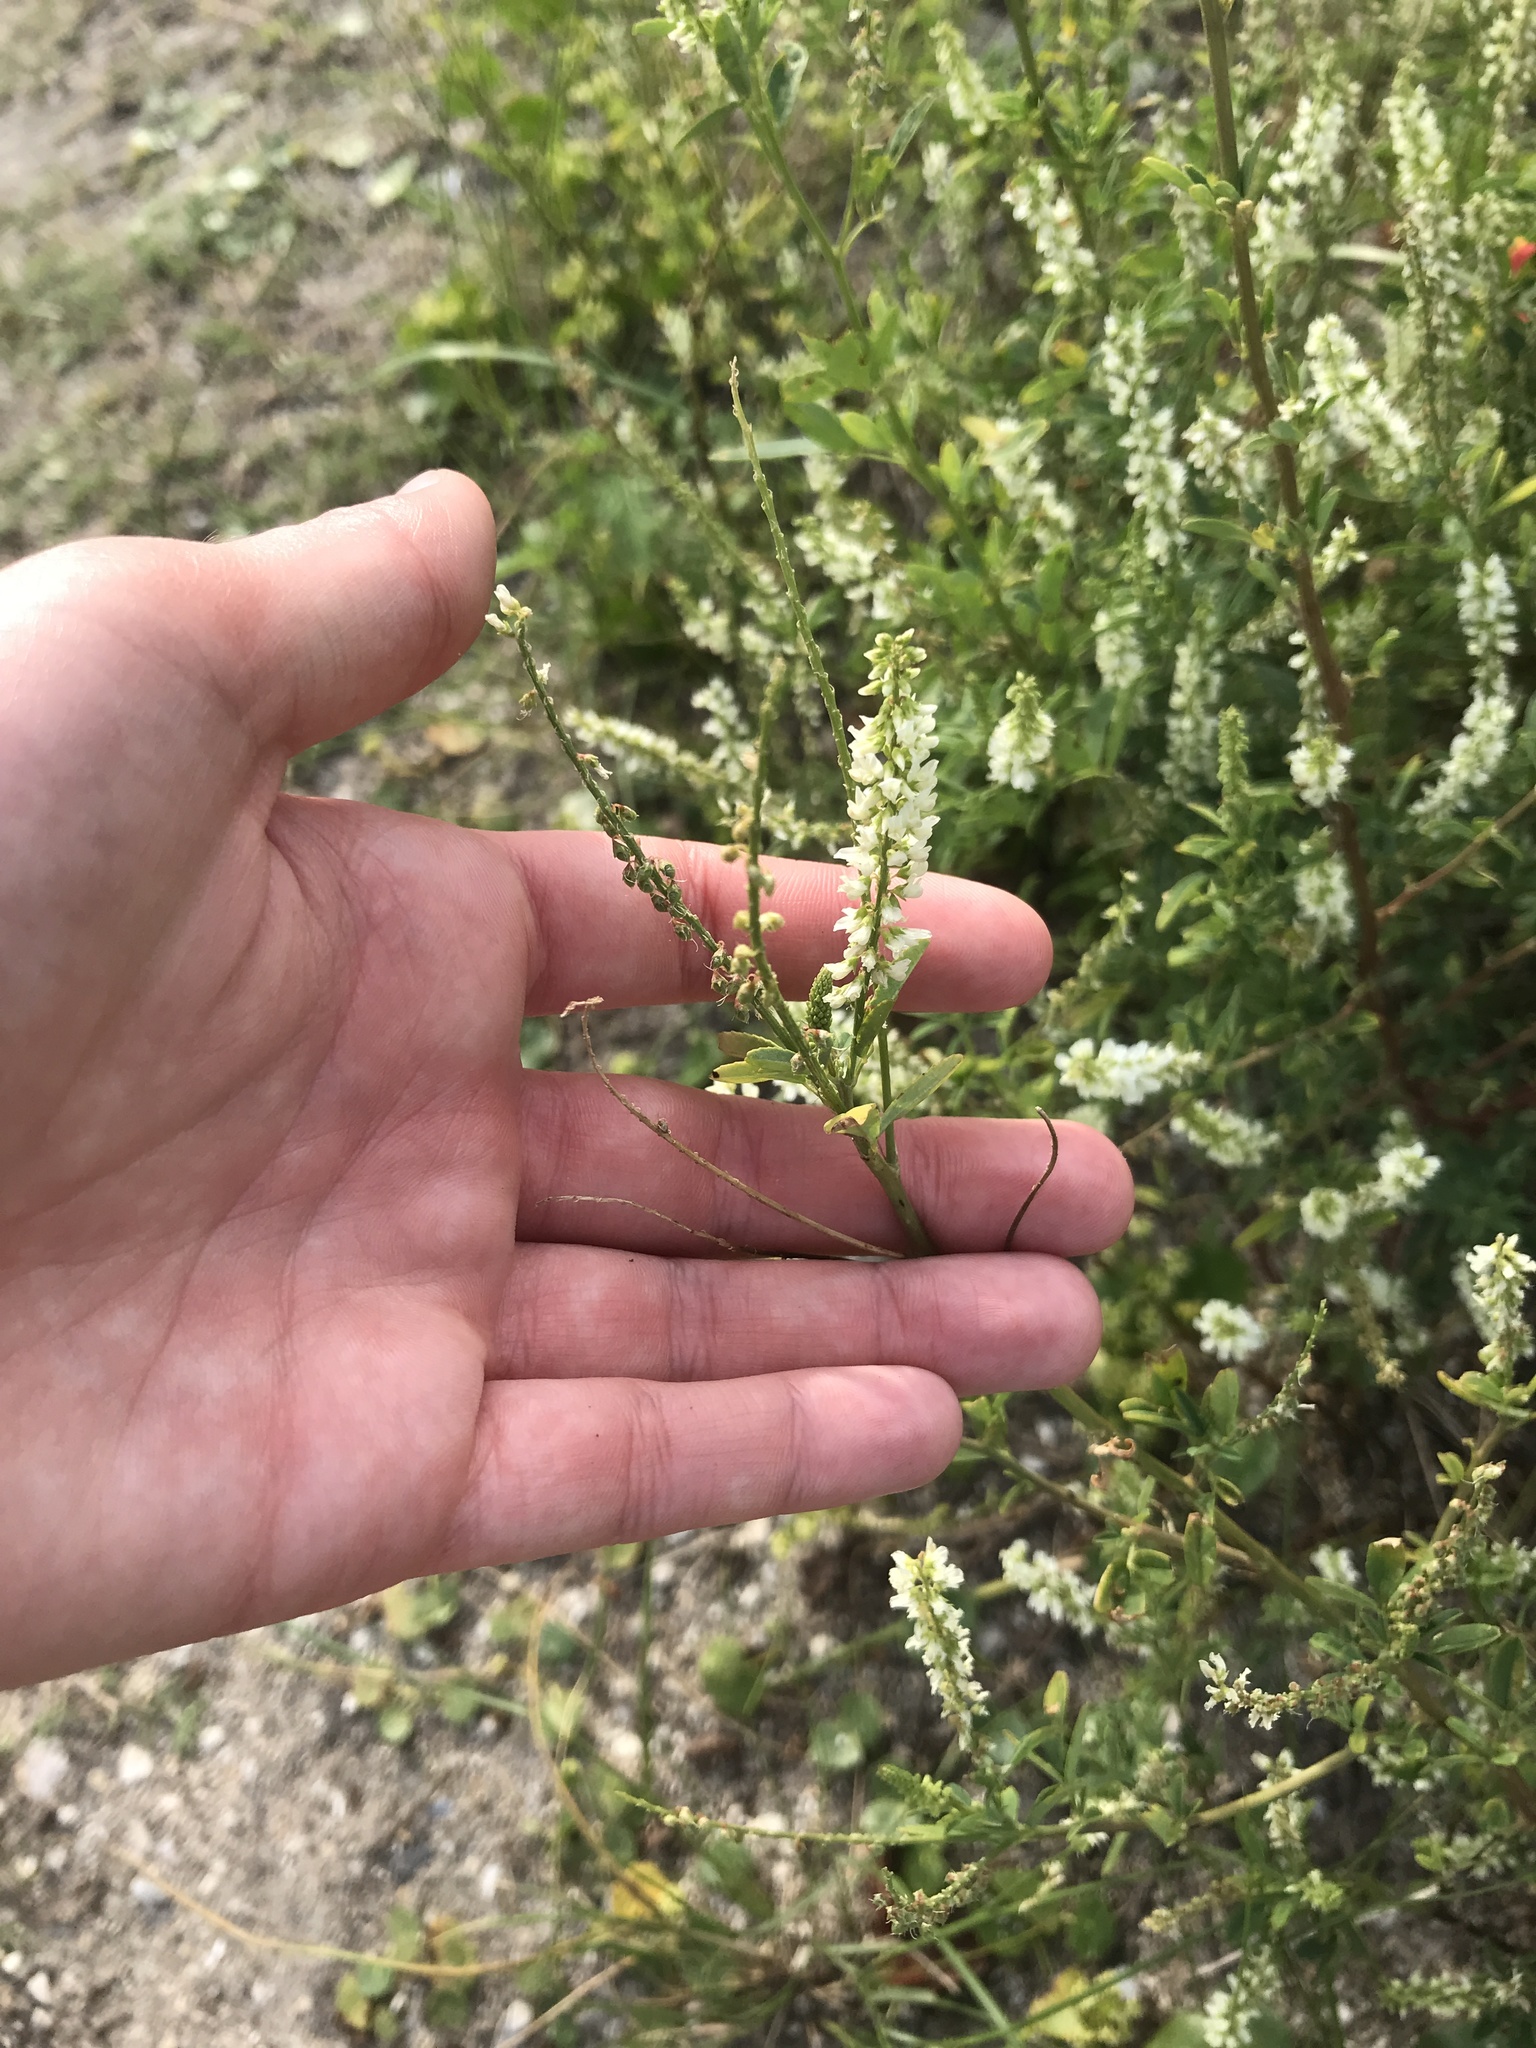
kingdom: Plantae
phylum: Tracheophyta
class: Magnoliopsida
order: Fabales
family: Fabaceae
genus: Melilotus
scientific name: Melilotus albus
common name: White melilot
